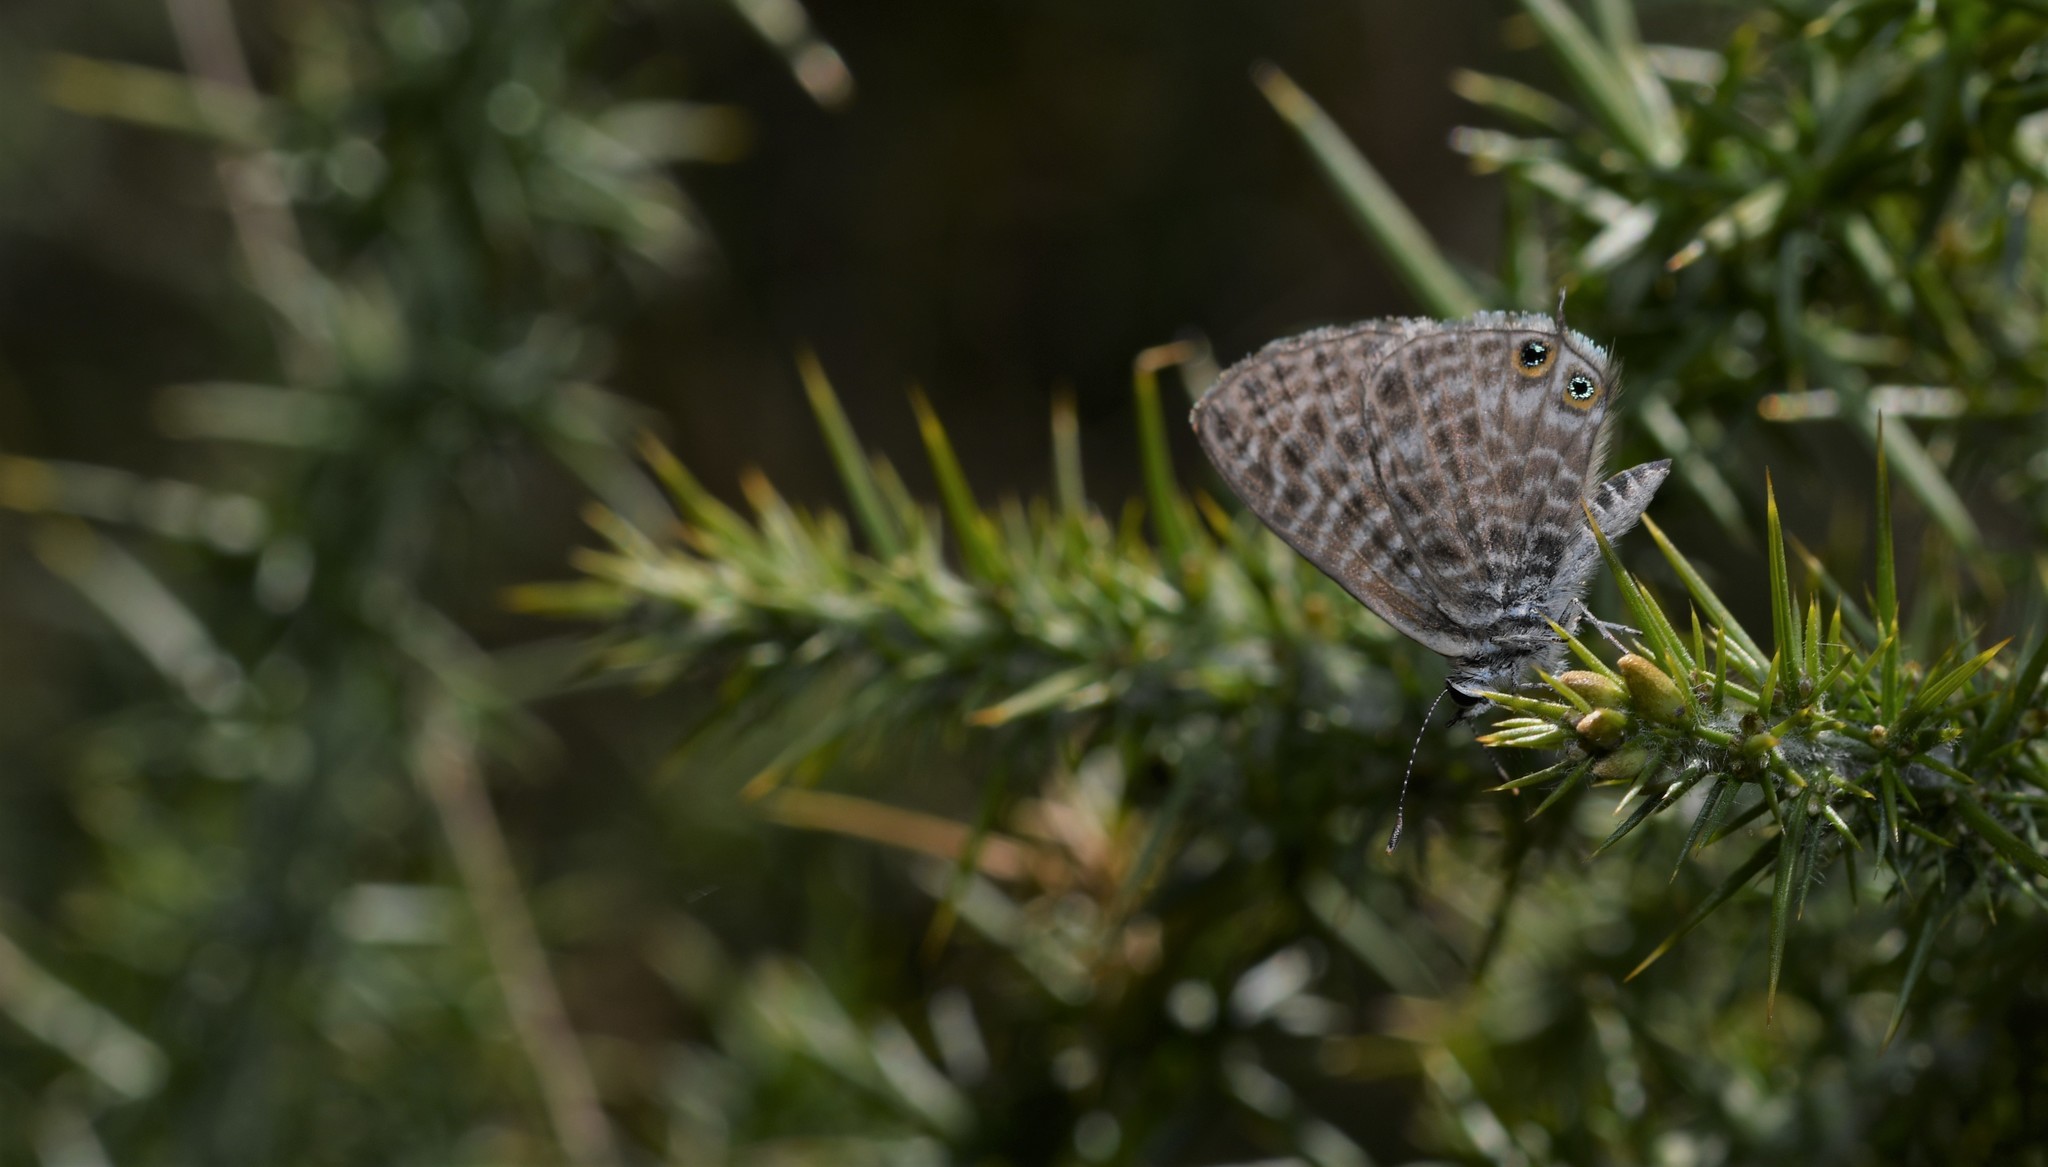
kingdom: Animalia
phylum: Arthropoda
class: Insecta
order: Lepidoptera
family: Lycaenidae
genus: Leptotes
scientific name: Leptotes pirithous
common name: Lang's short-tailed blue
